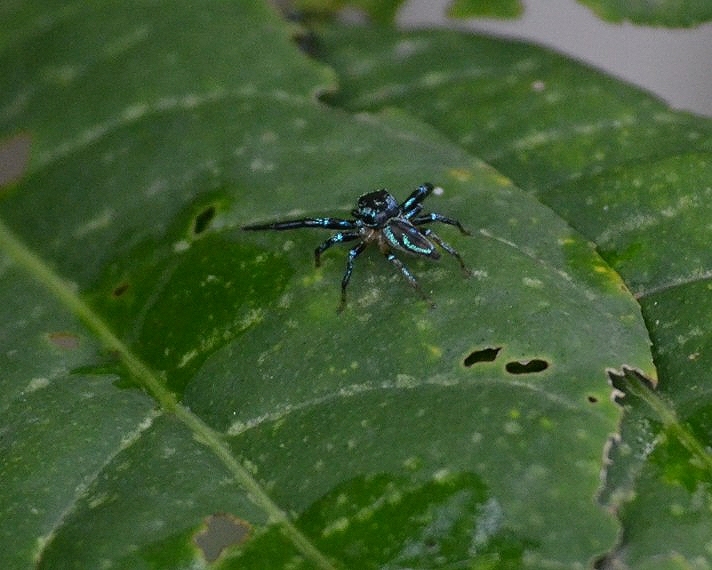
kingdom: Animalia
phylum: Arthropoda
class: Arachnida
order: Araneae
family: Salticidae
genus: Thiania
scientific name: Thiania bhamoensis
